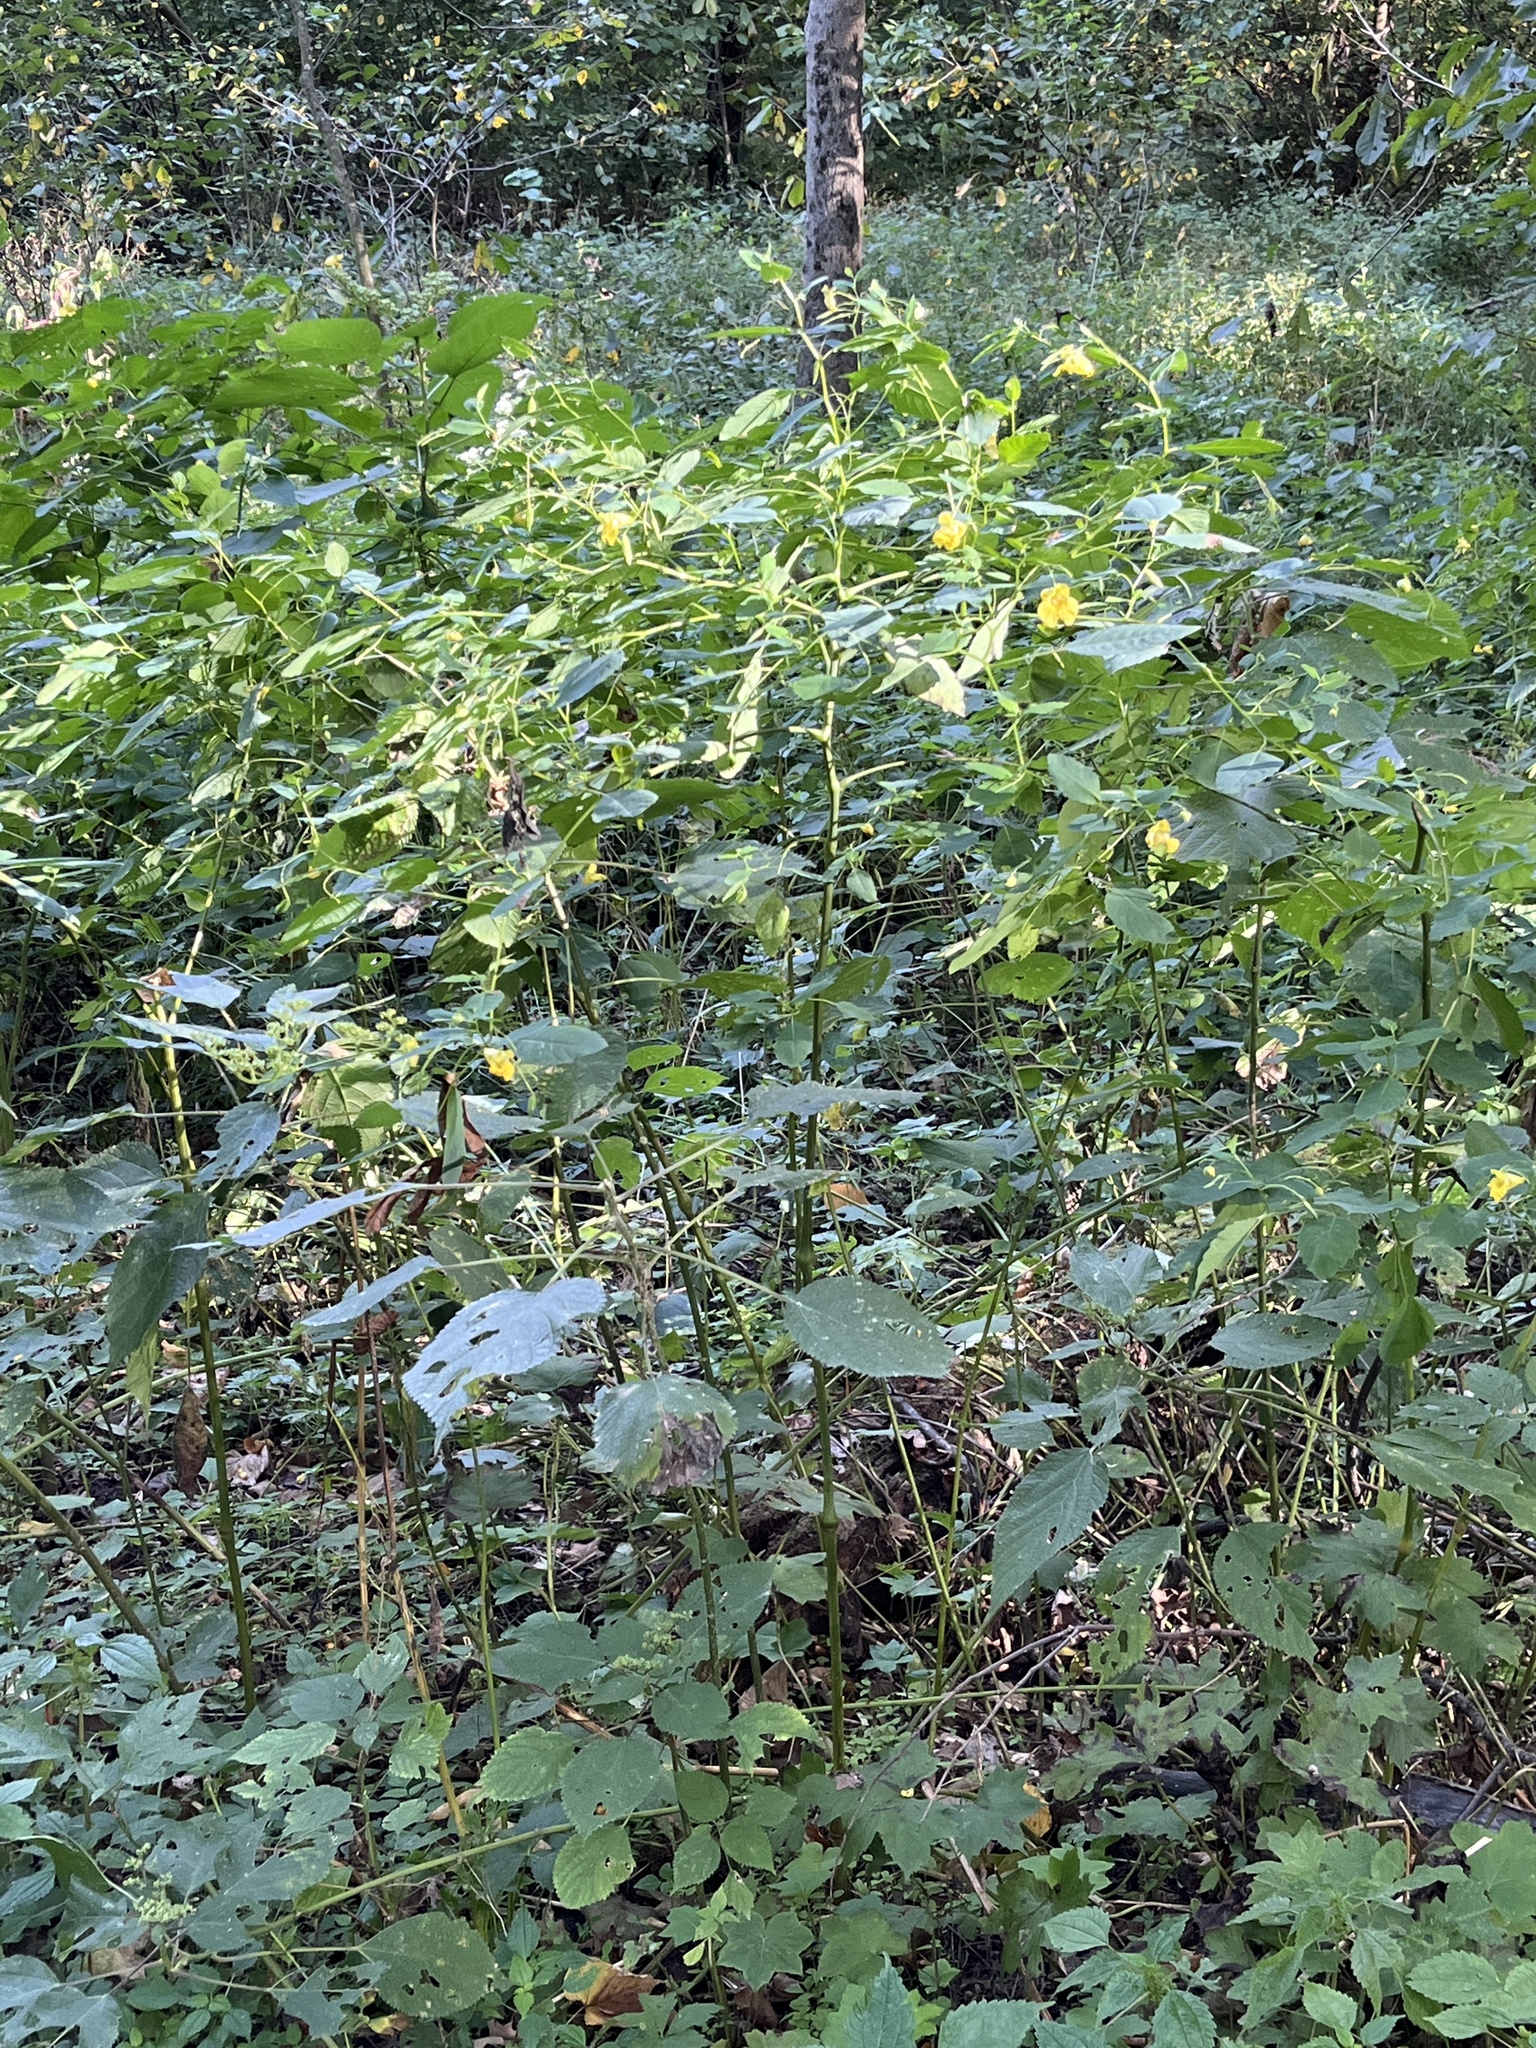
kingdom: Plantae
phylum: Tracheophyta
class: Magnoliopsida
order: Ericales
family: Balsaminaceae
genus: Impatiens
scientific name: Impatiens pallida
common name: Pale snapweed
